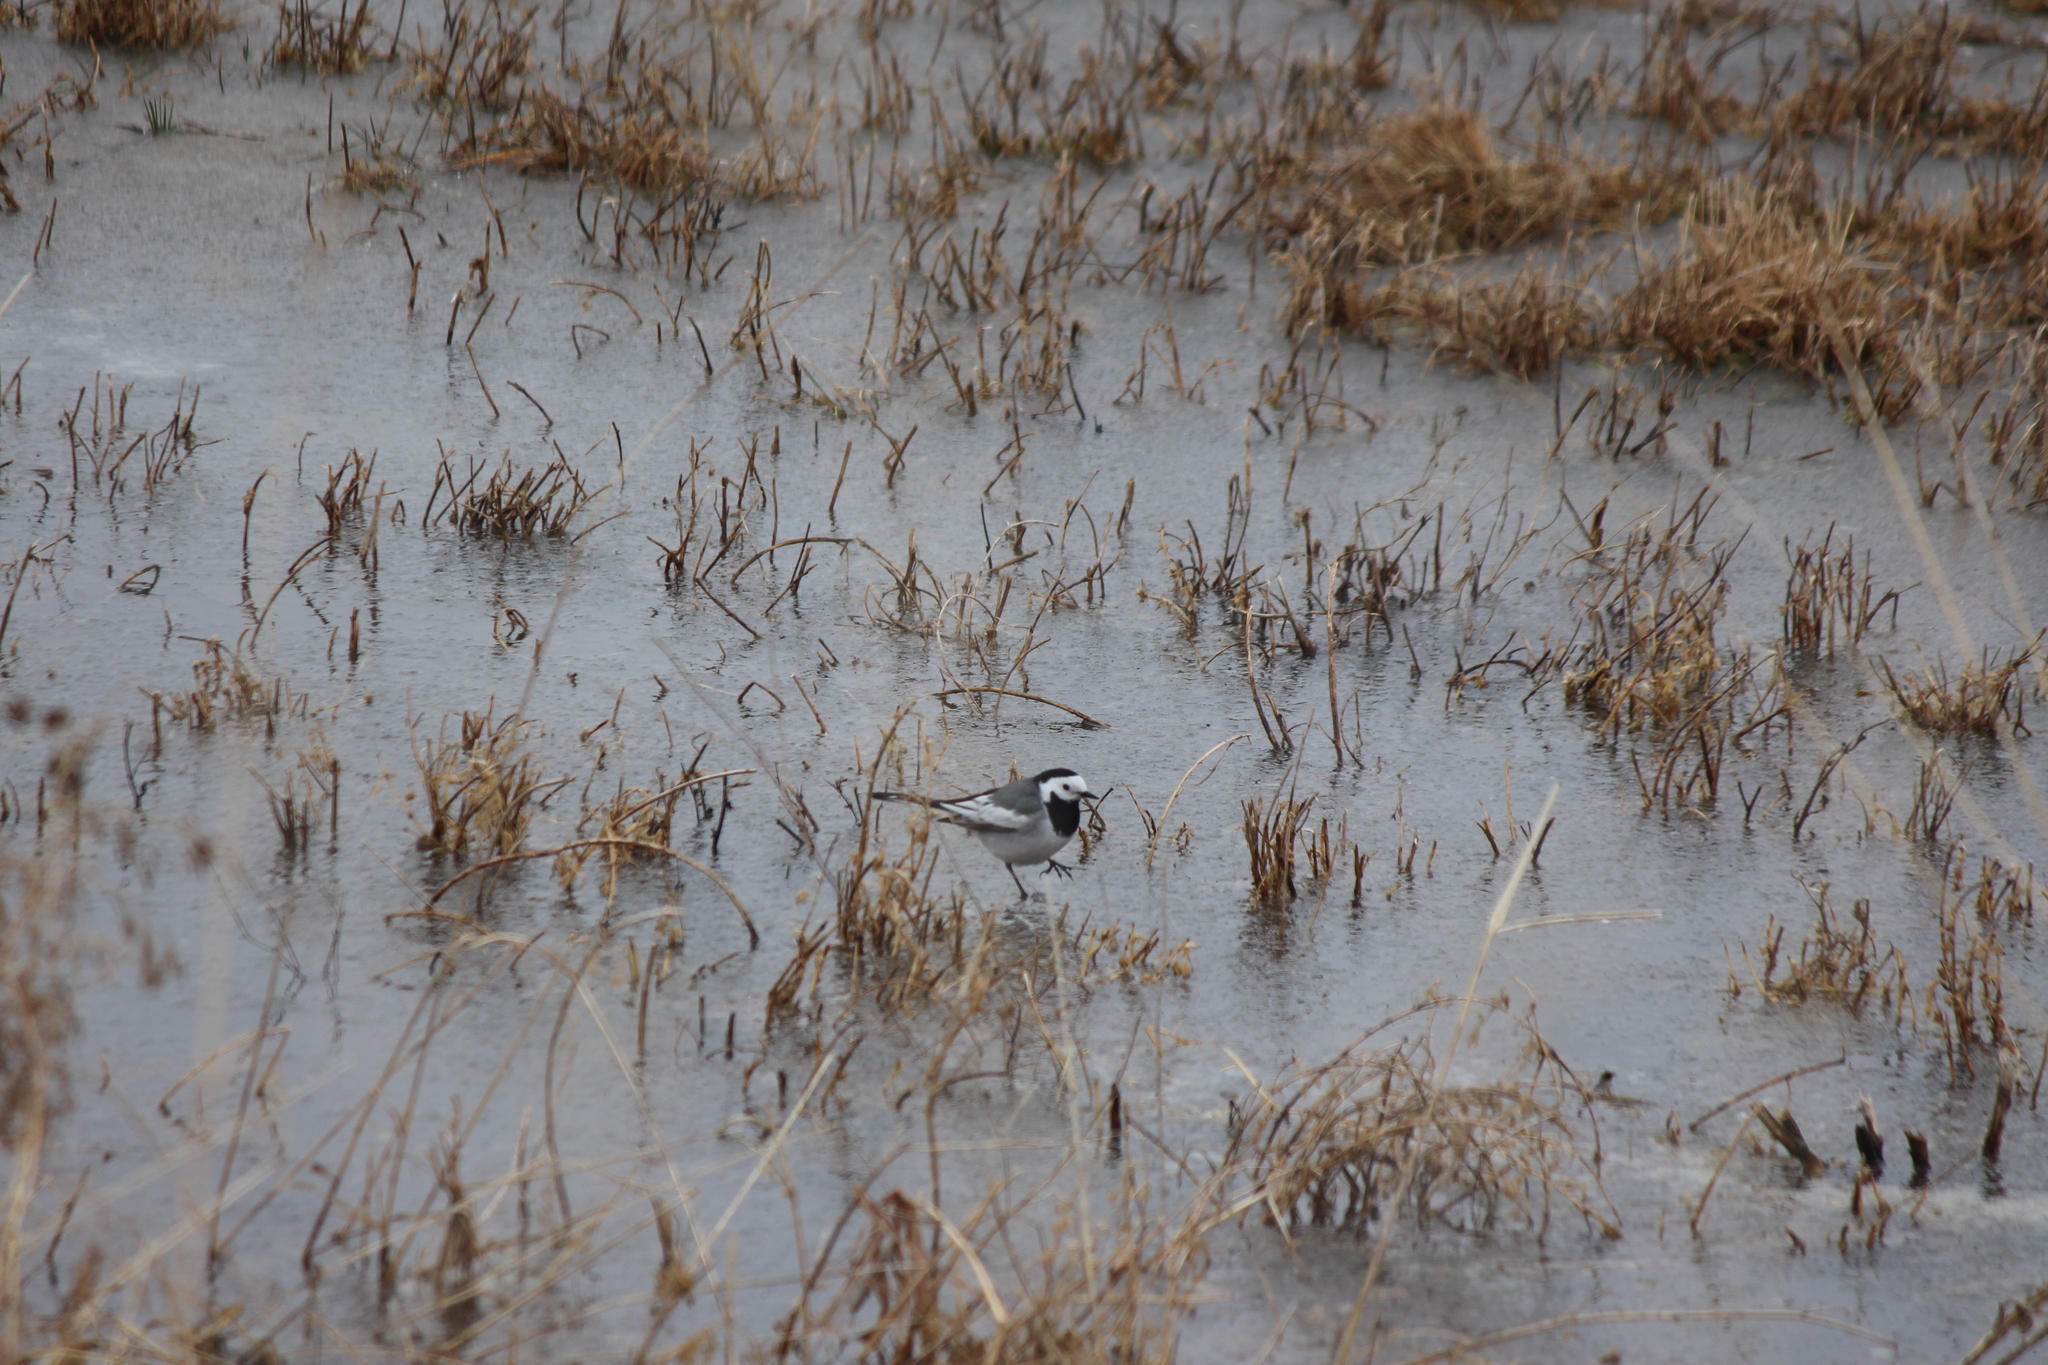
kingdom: Animalia
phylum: Chordata
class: Aves
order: Passeriformes
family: Motacillidae
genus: Motacilla
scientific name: Motacilla alba
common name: White wagtail
